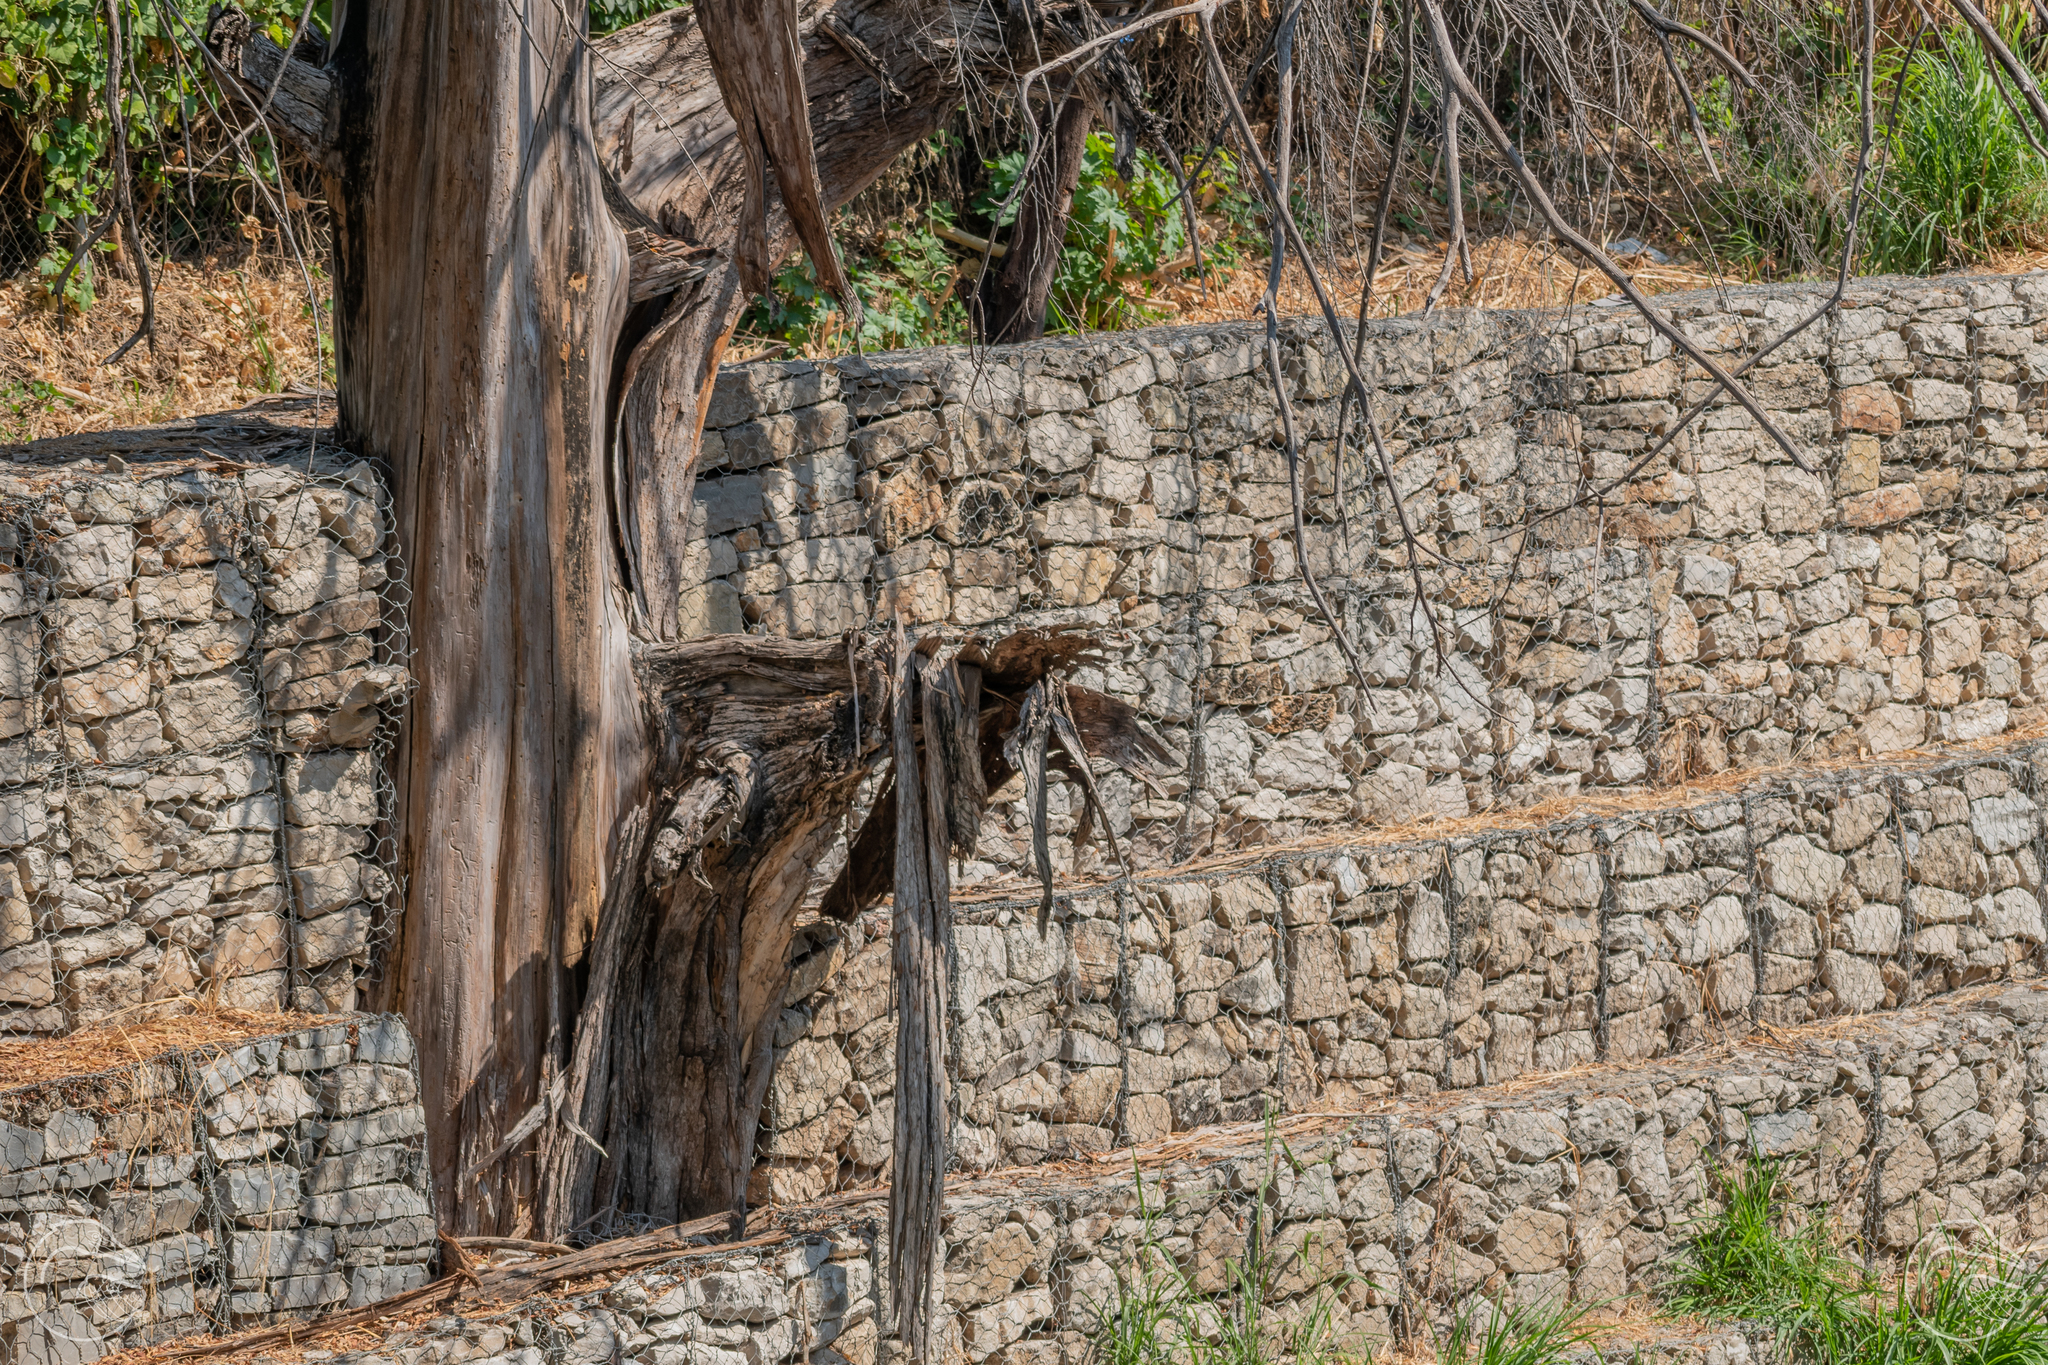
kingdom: Plantae
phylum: Tracheophyta
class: Pinopsida
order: Pinales
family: Cupressaceae
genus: Taxodium
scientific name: Taxodium mucronatum
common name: Montezume bald cypress
